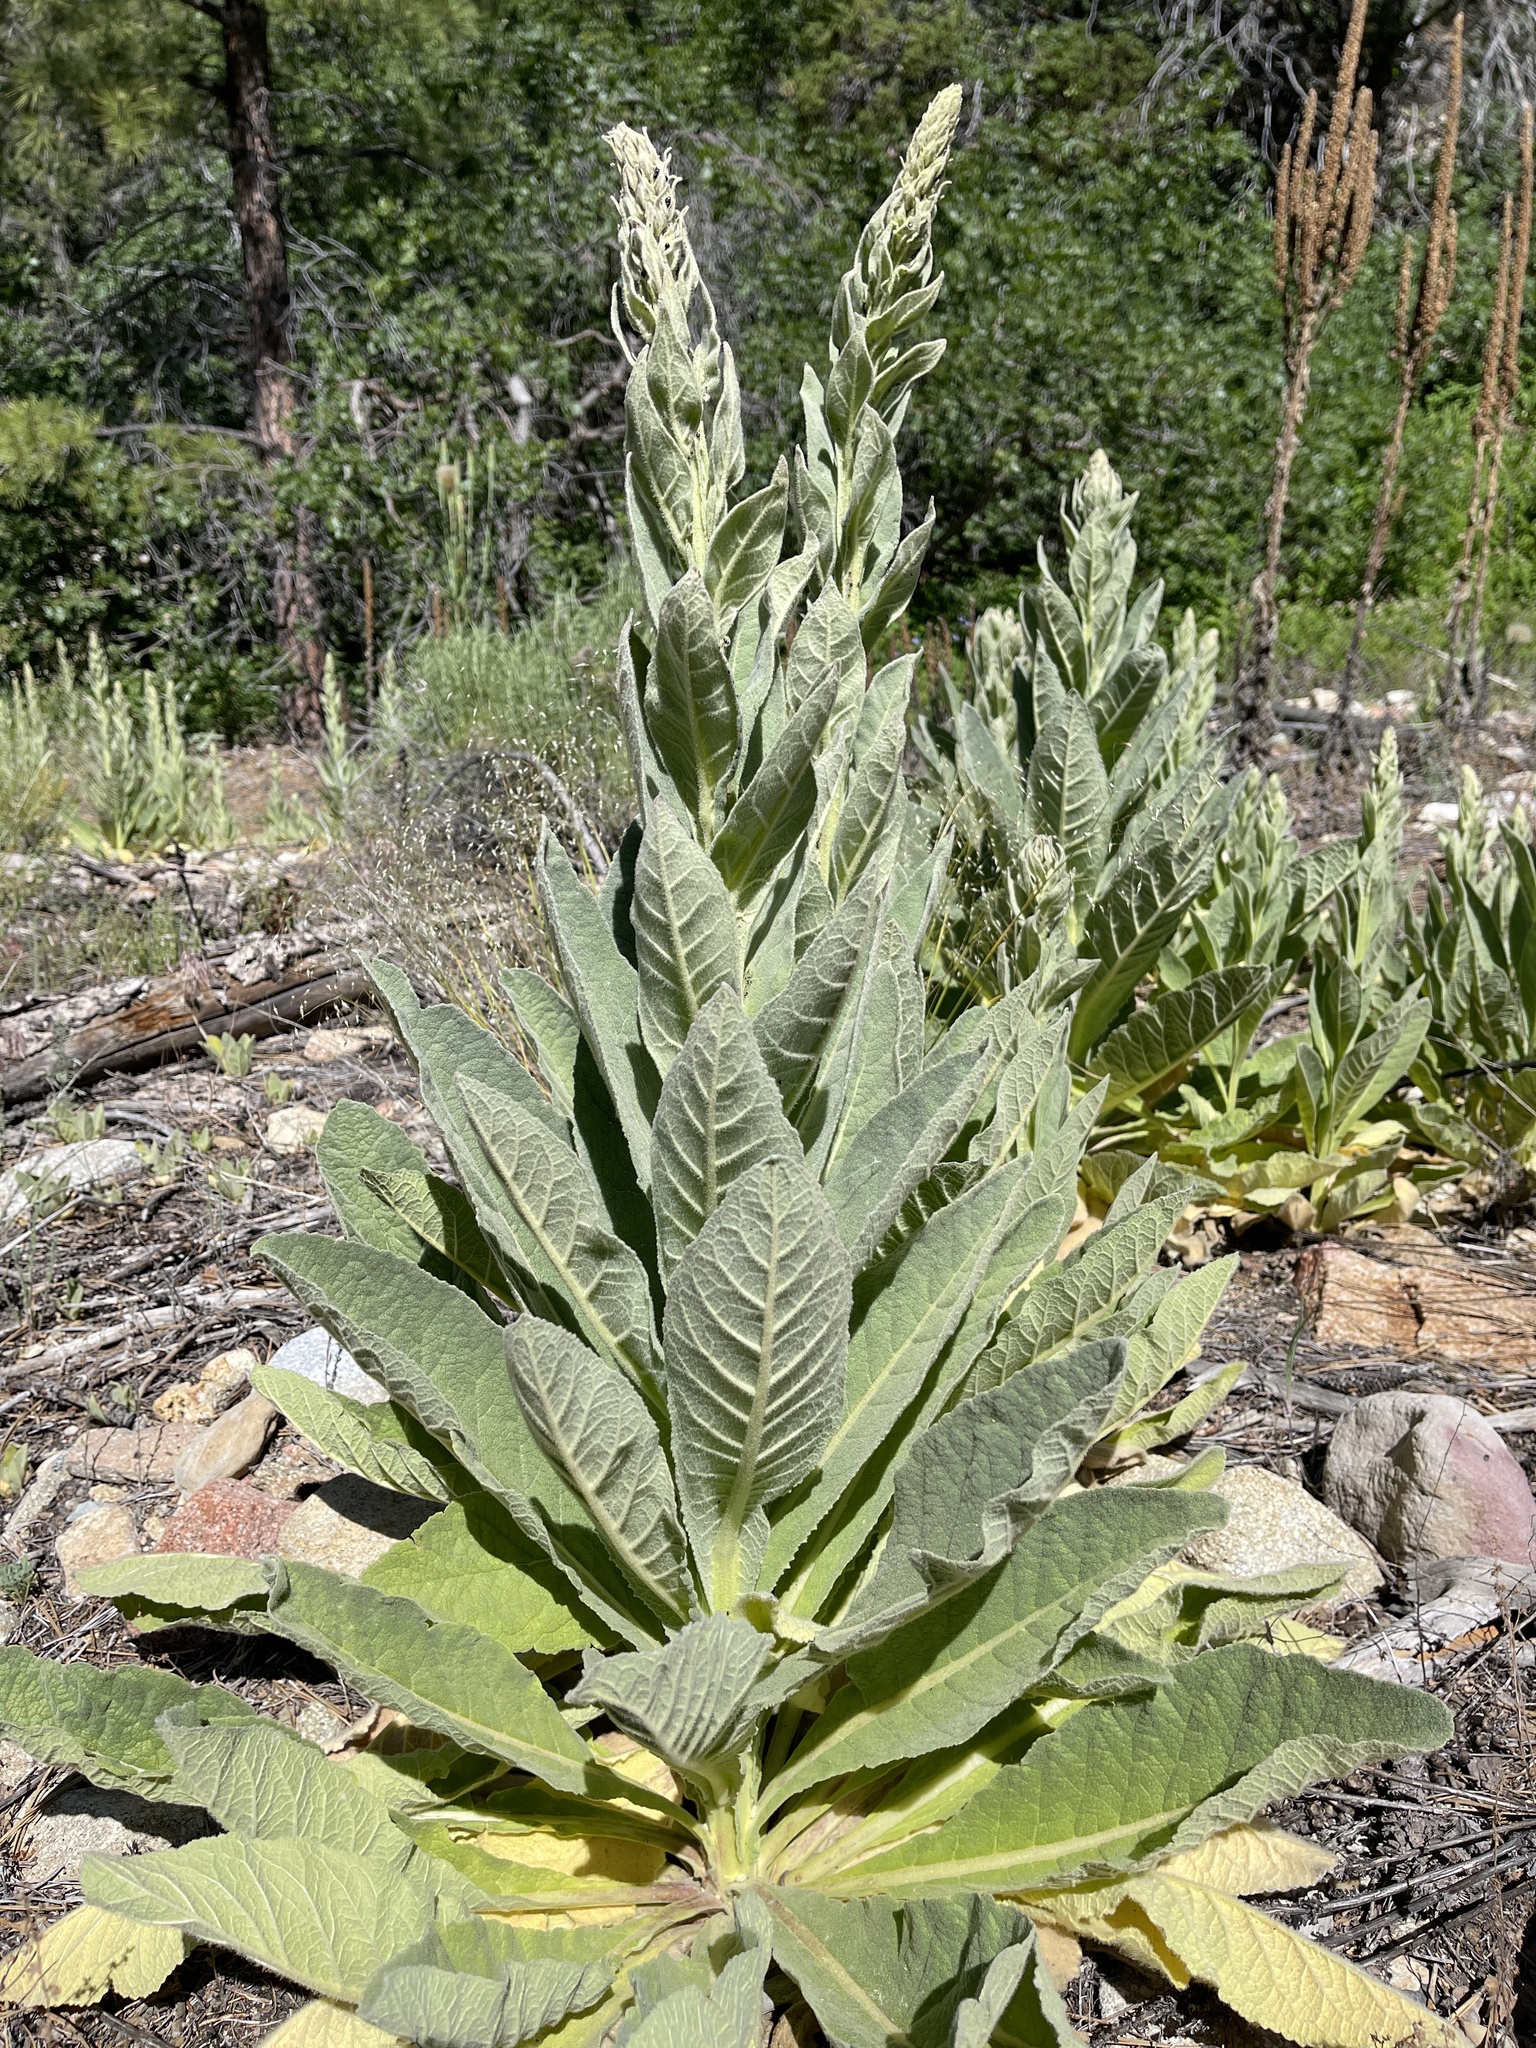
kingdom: Plantae
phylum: Tracheophyta
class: Magnoliopsida
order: Lamiales
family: Scrophulariaceae
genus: Verbascum
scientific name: Verbascum thapsus
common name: Common mullein
